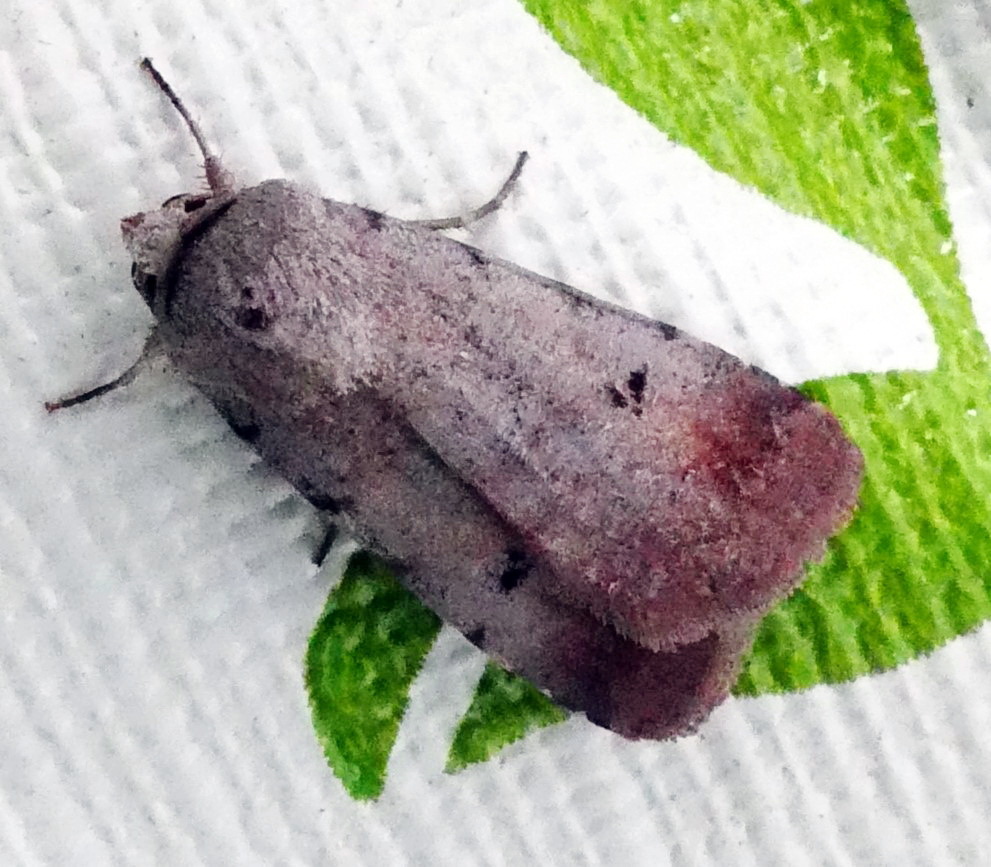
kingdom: Animalia
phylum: Arthropoda
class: Insecta
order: Lepidoptera
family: Noctuidae
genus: Anicla
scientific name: Anicla illapsa
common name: Snowy dart
